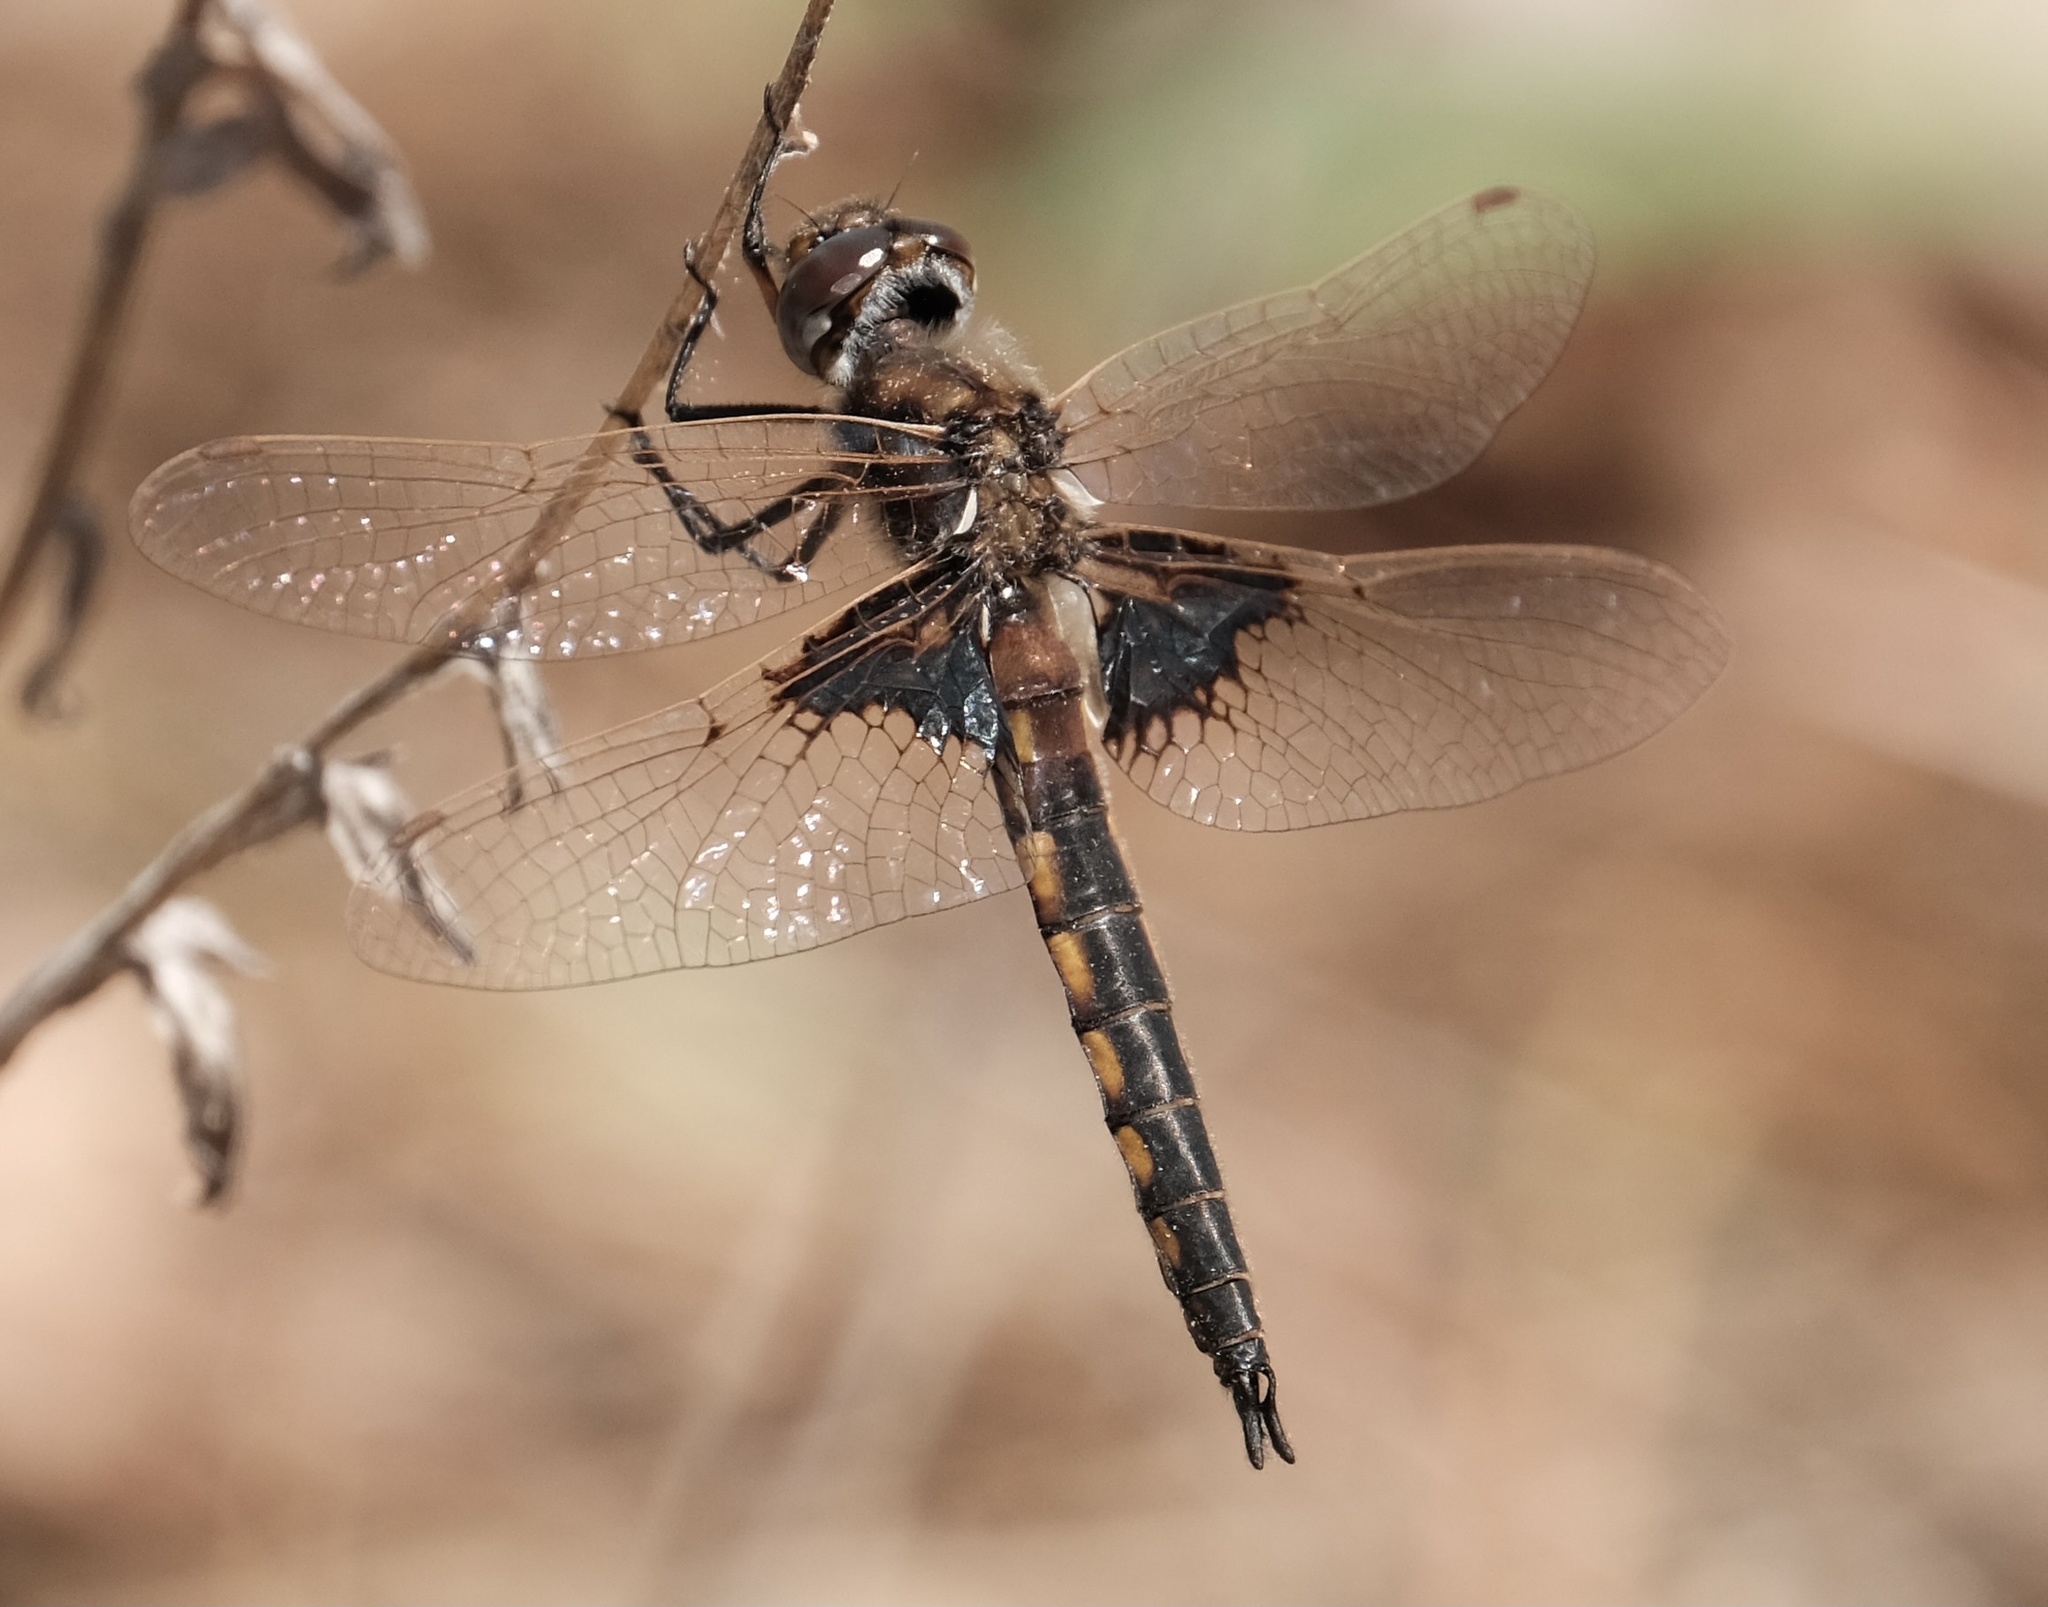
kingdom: Animalia
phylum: Arthropoda
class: Insecta
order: Odonata
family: Corduliidae
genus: Epitheca
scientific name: Epitheca semiaquea
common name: Mantled baskettail
